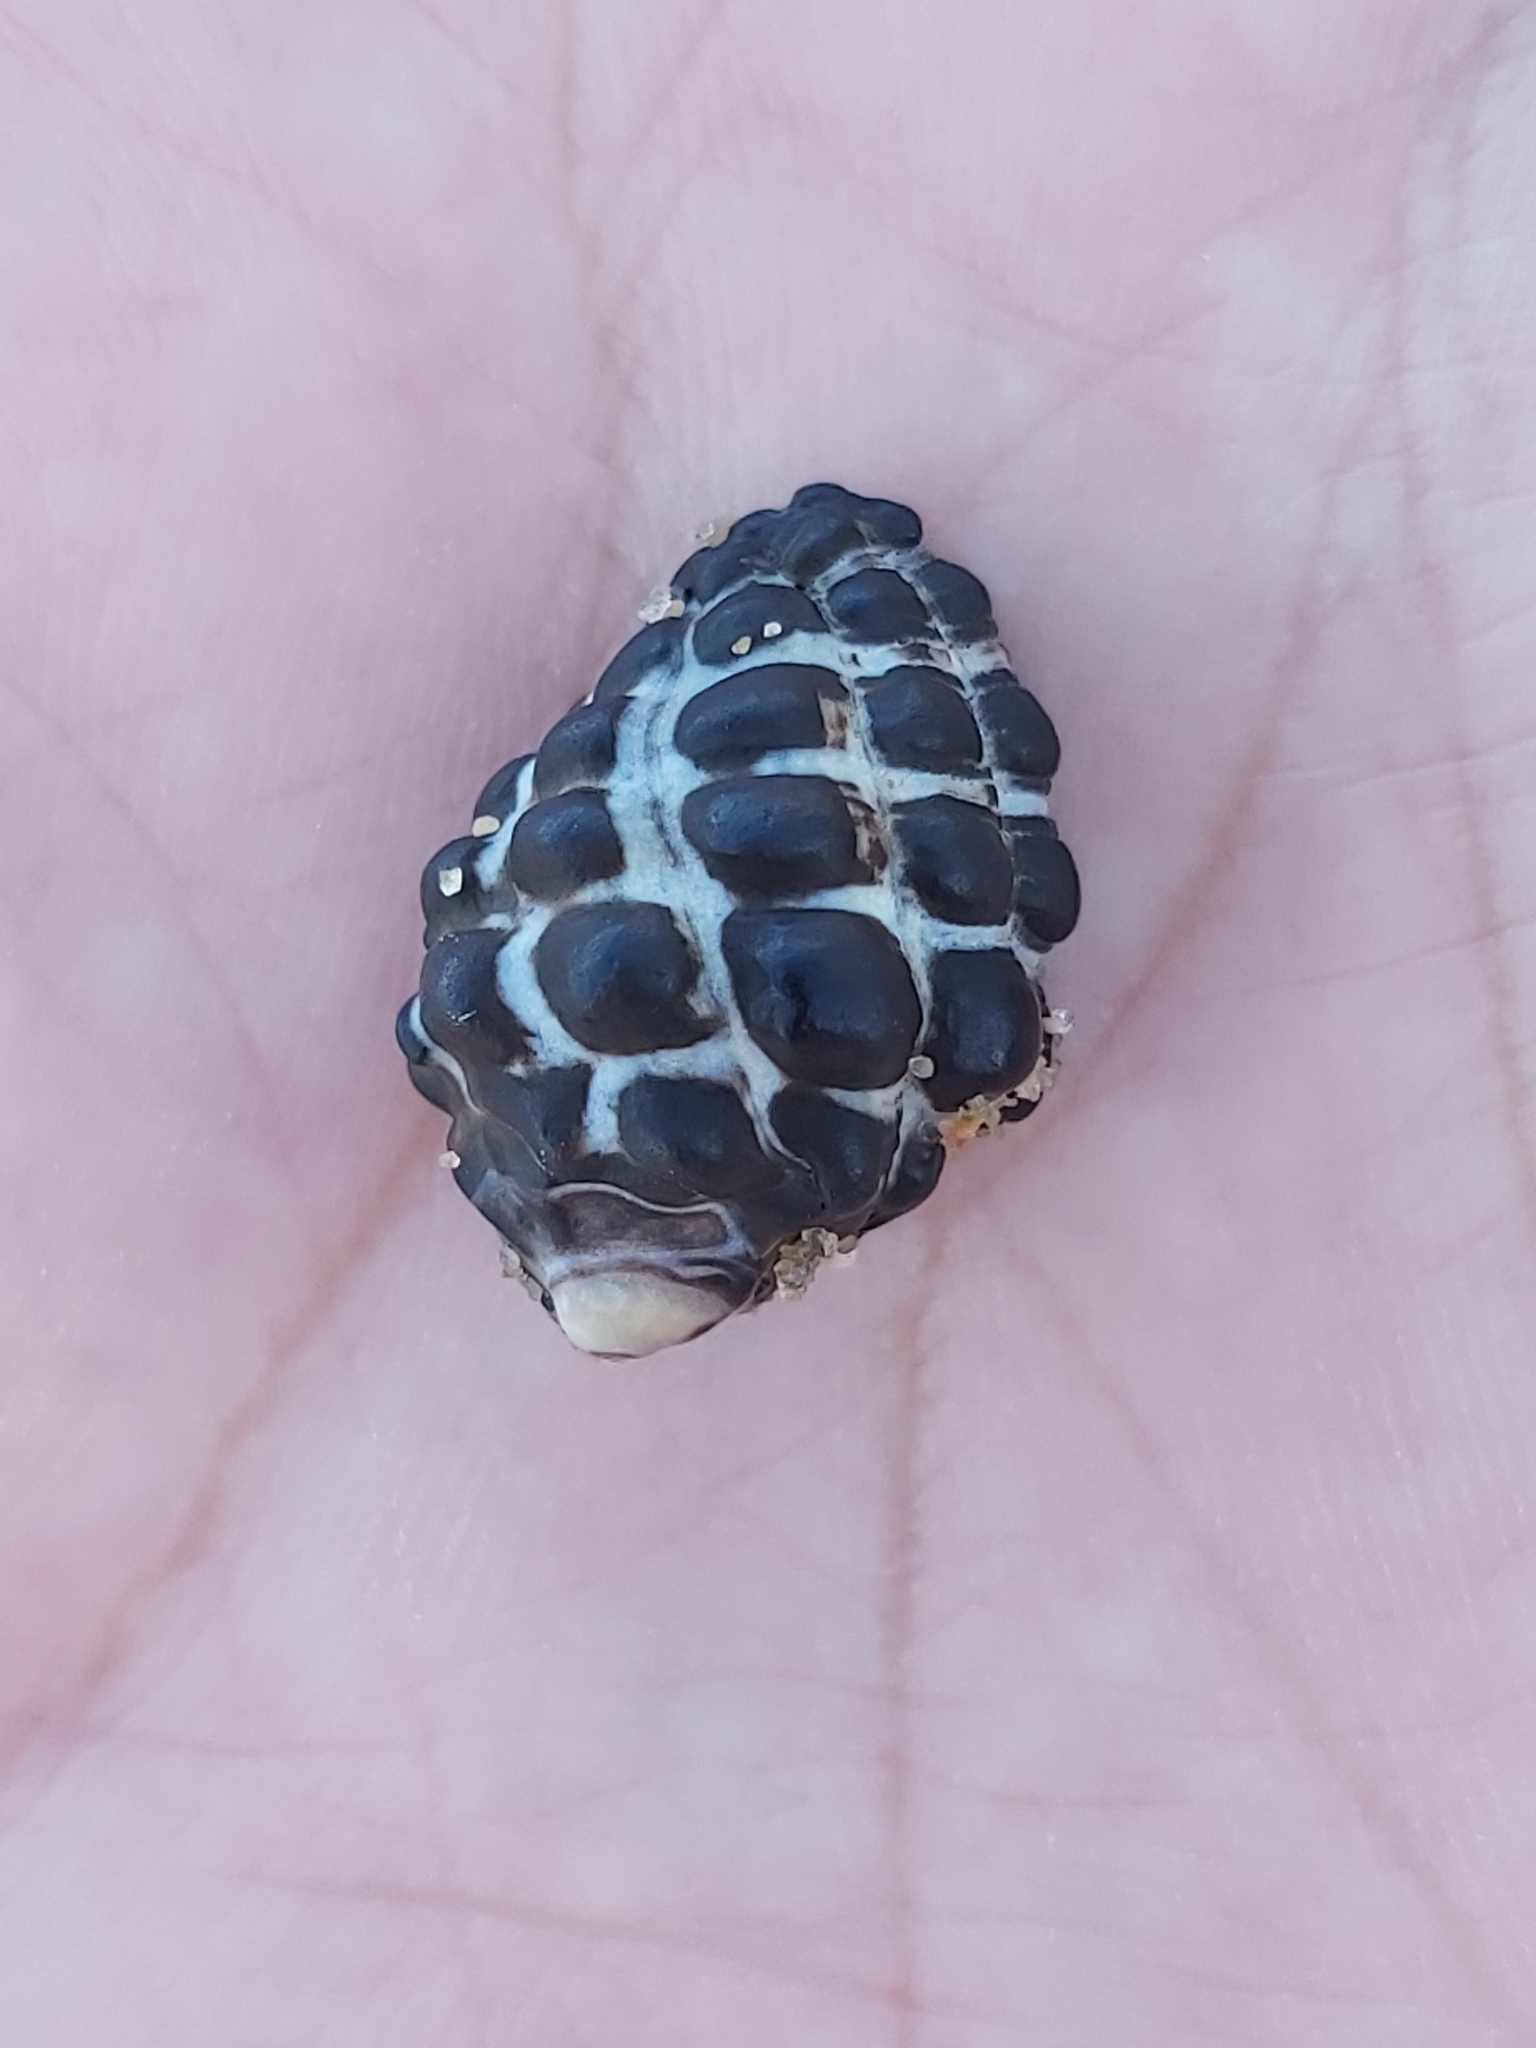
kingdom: Animalia
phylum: Mollusca
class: Gastropoda
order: Neogastropoda
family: Muricidae
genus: Tenguella
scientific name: Tenguella marginalba
